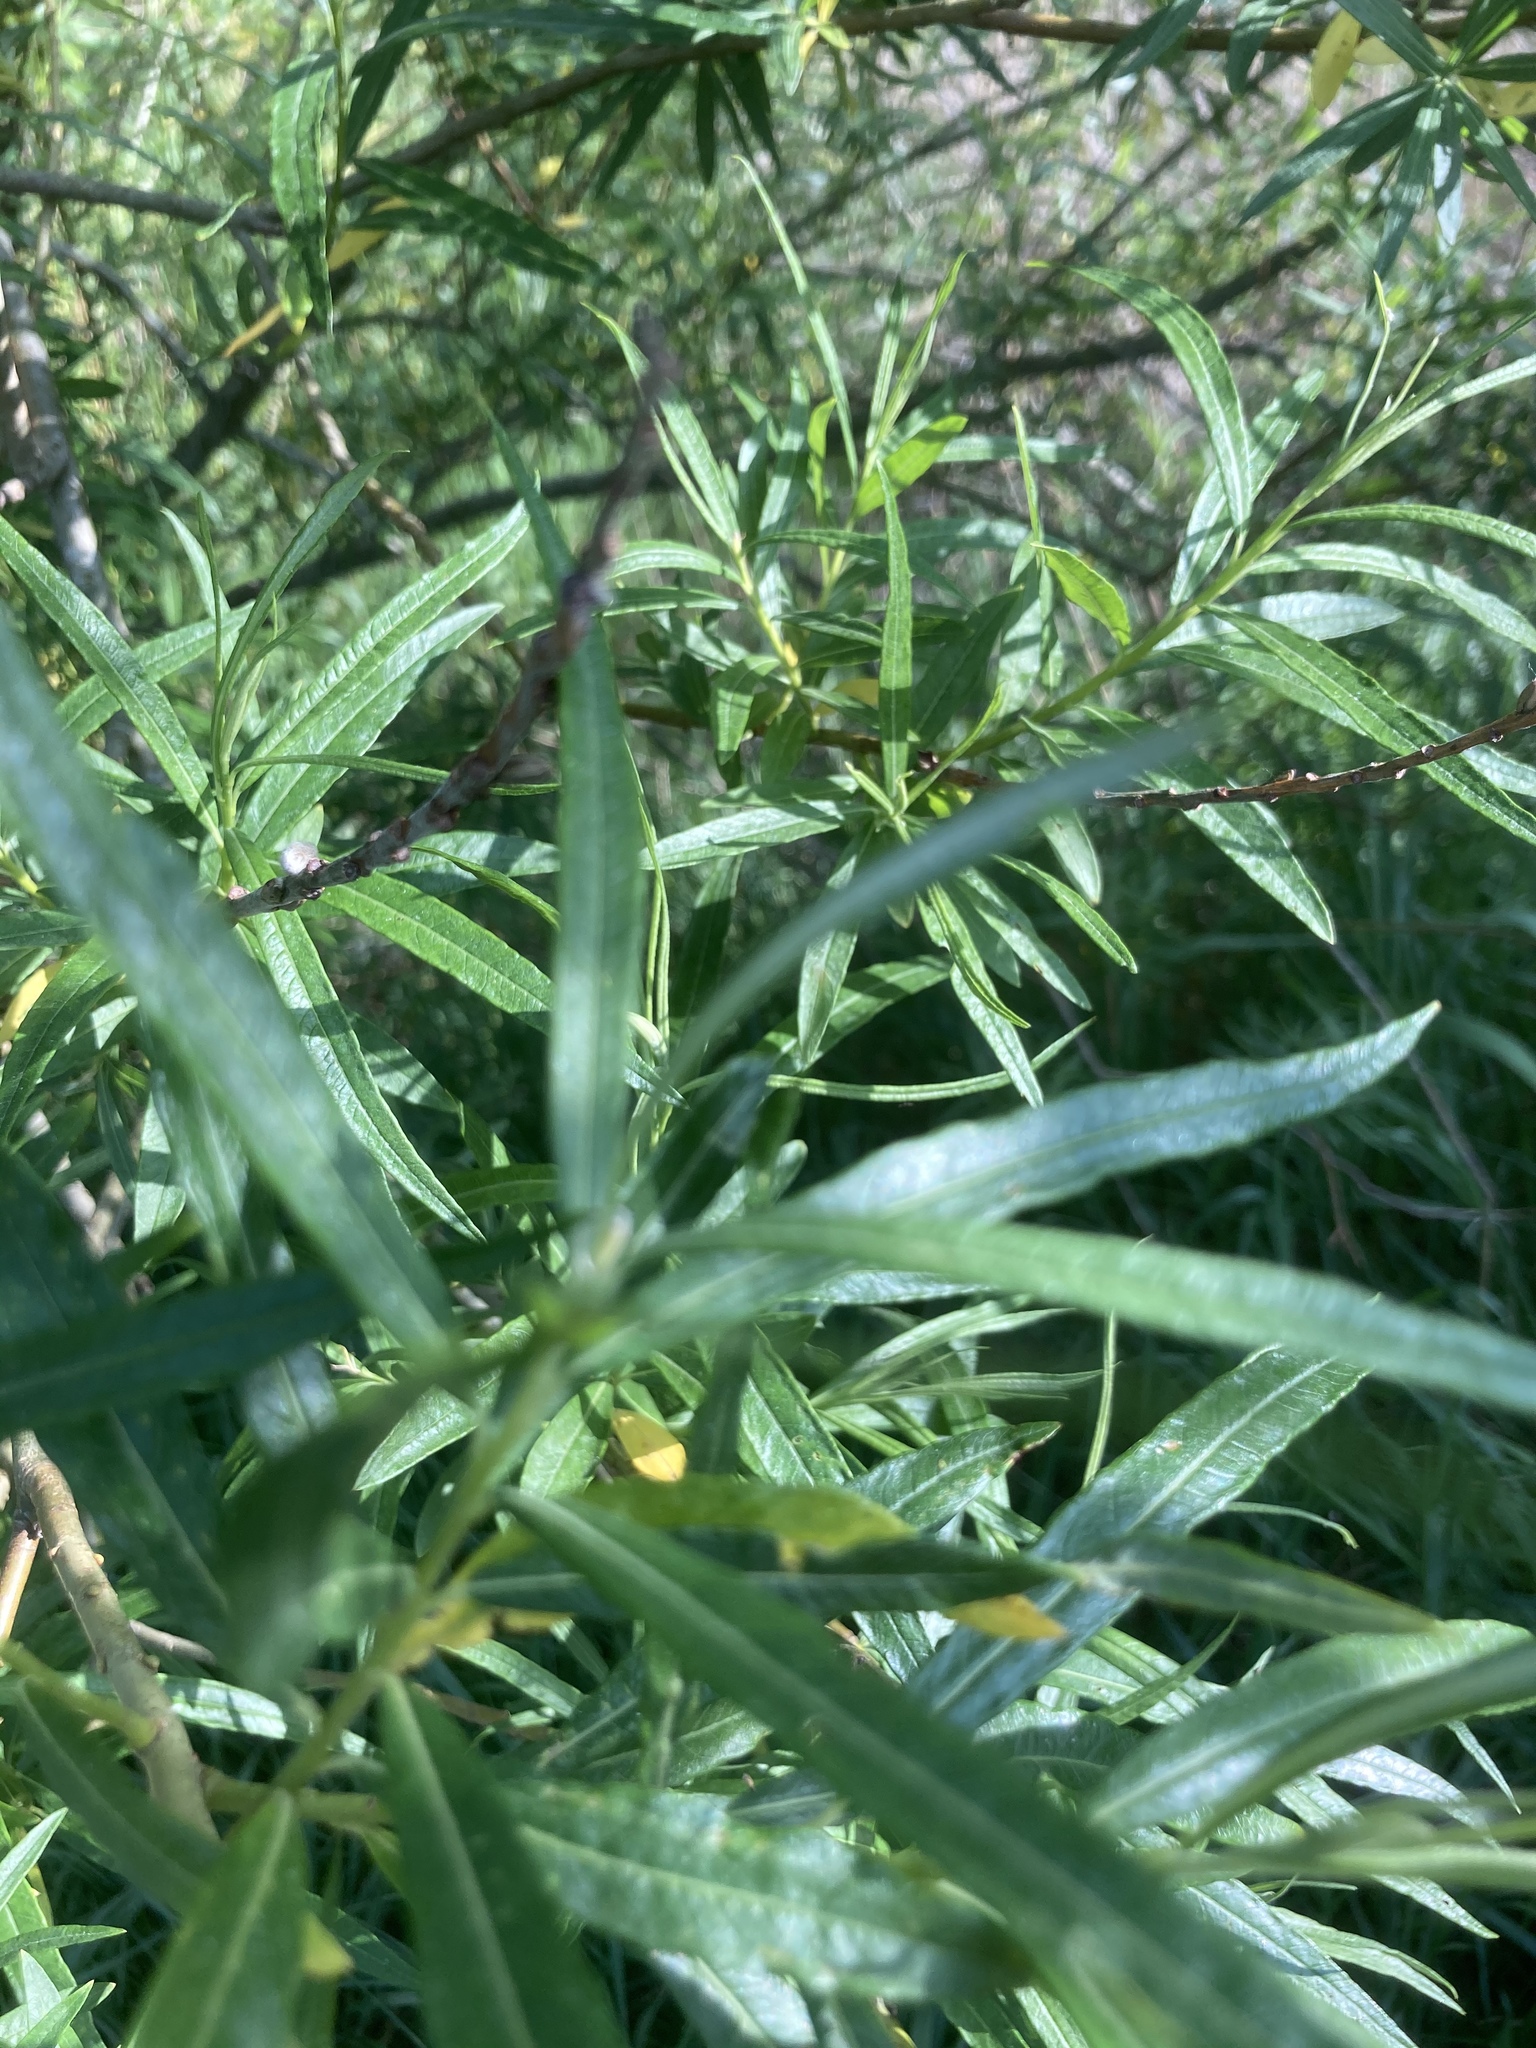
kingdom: Plantae
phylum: Tracheophyta
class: Magnoliopsida
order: Malpighiales
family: Salicaceae
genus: Salix
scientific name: Salix viminalis
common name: Osier
